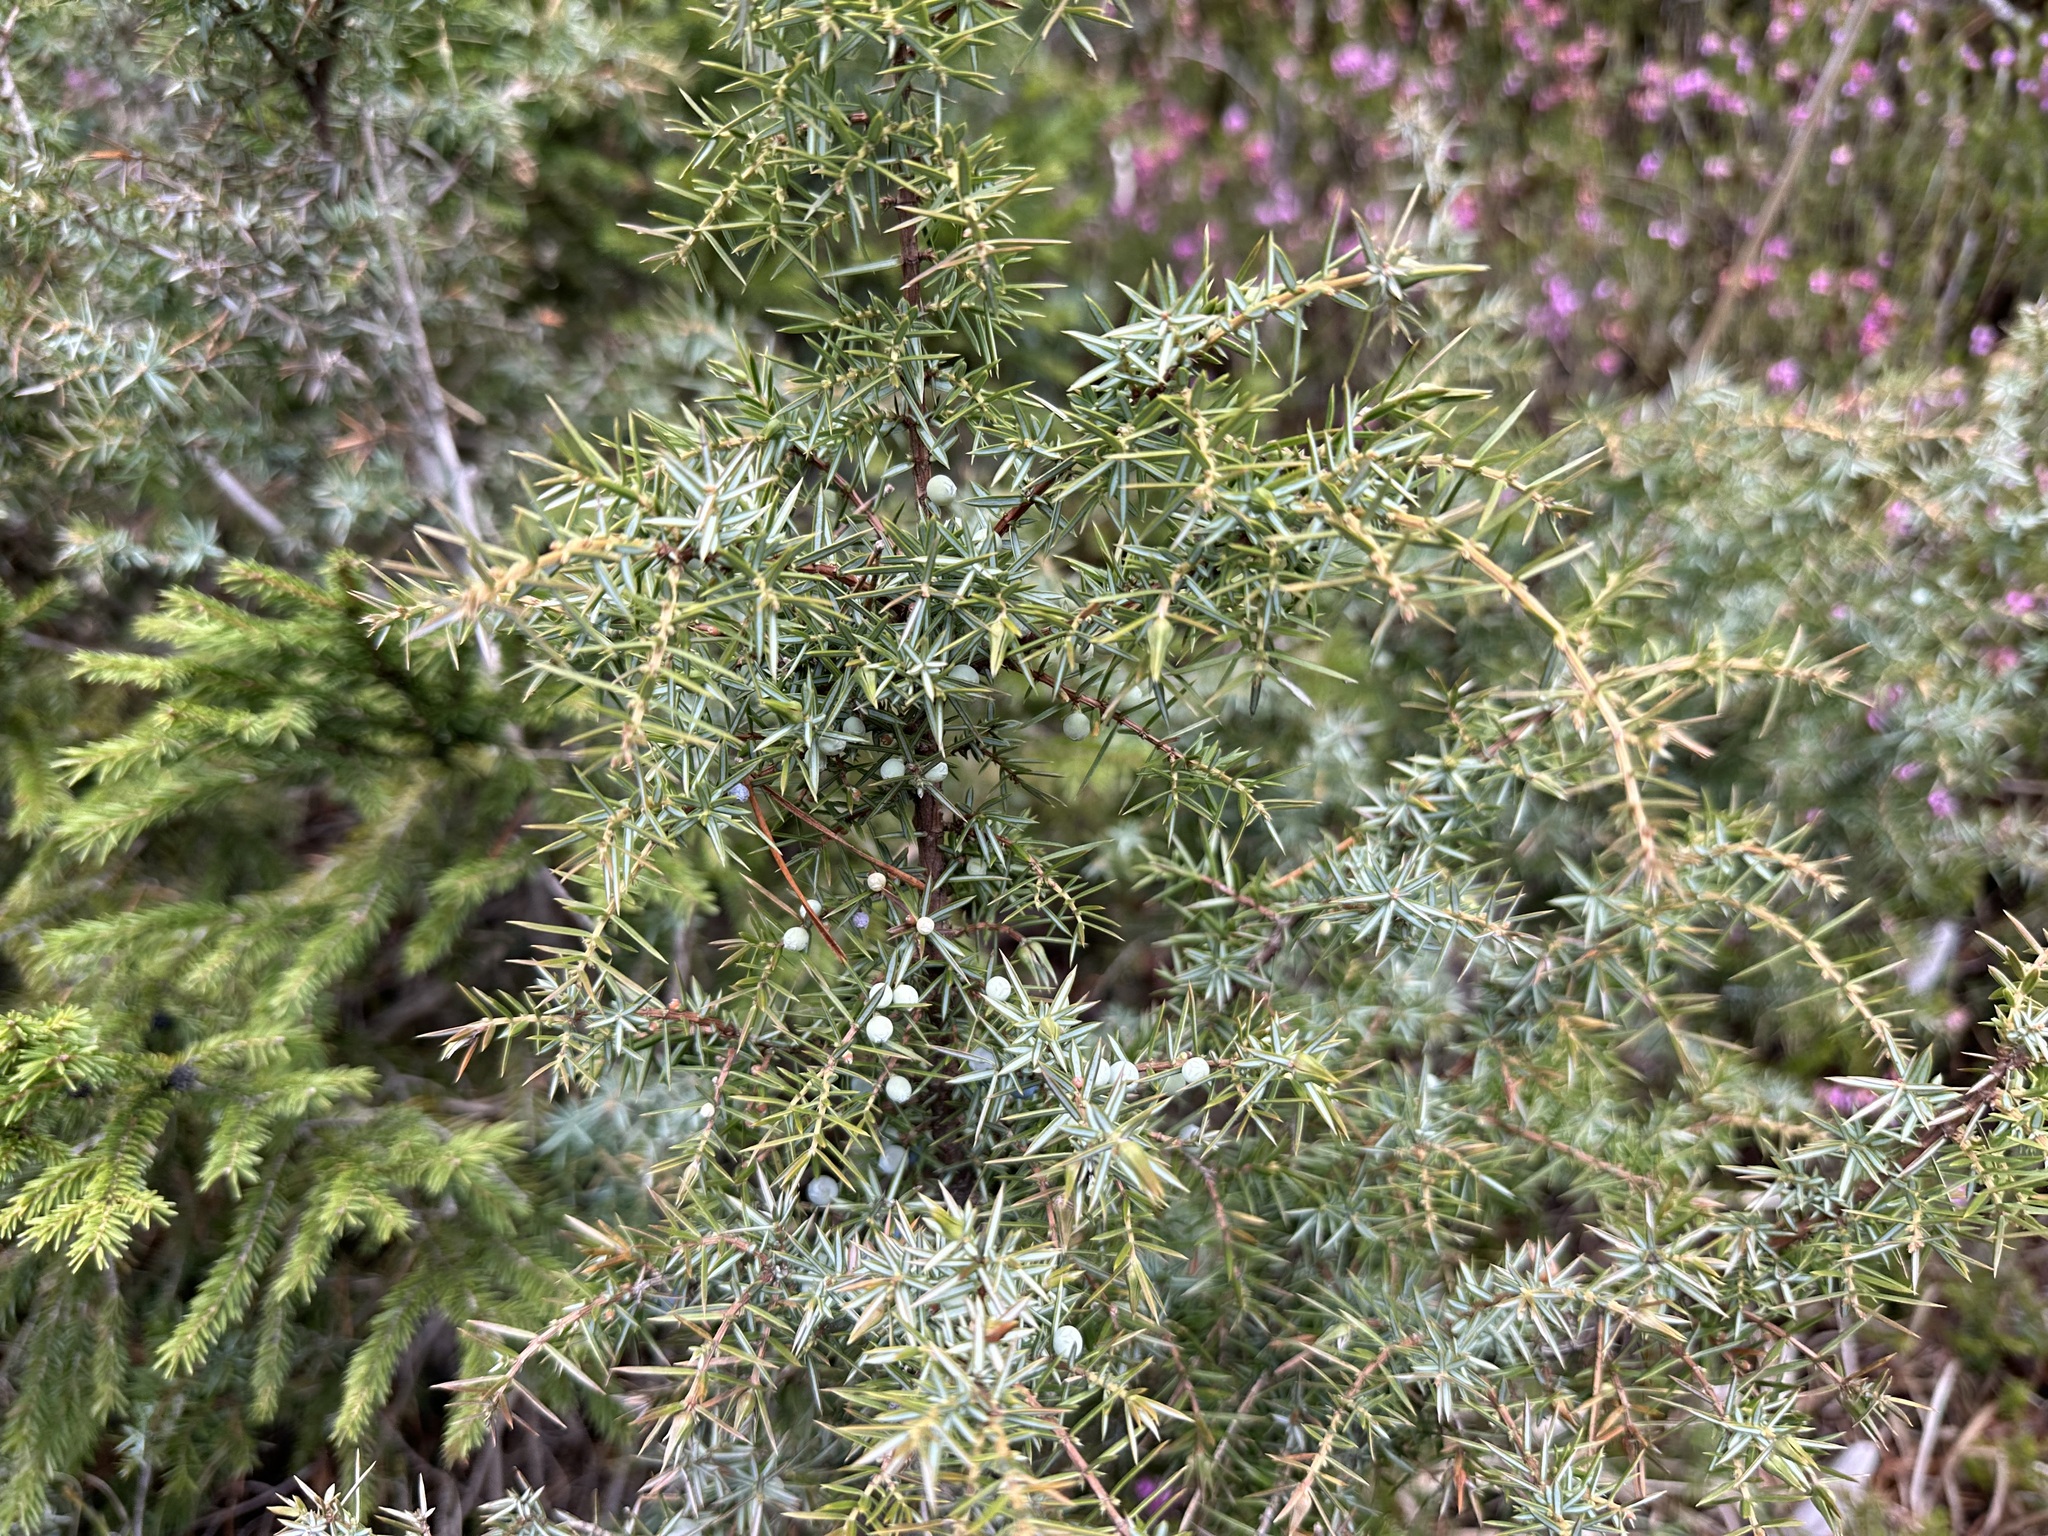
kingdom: Plantae
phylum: Tracheophyta
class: Pinopsida
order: Pinales
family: Cupressaceae
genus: Juniperus
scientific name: Juniperus communis
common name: Common juniper
